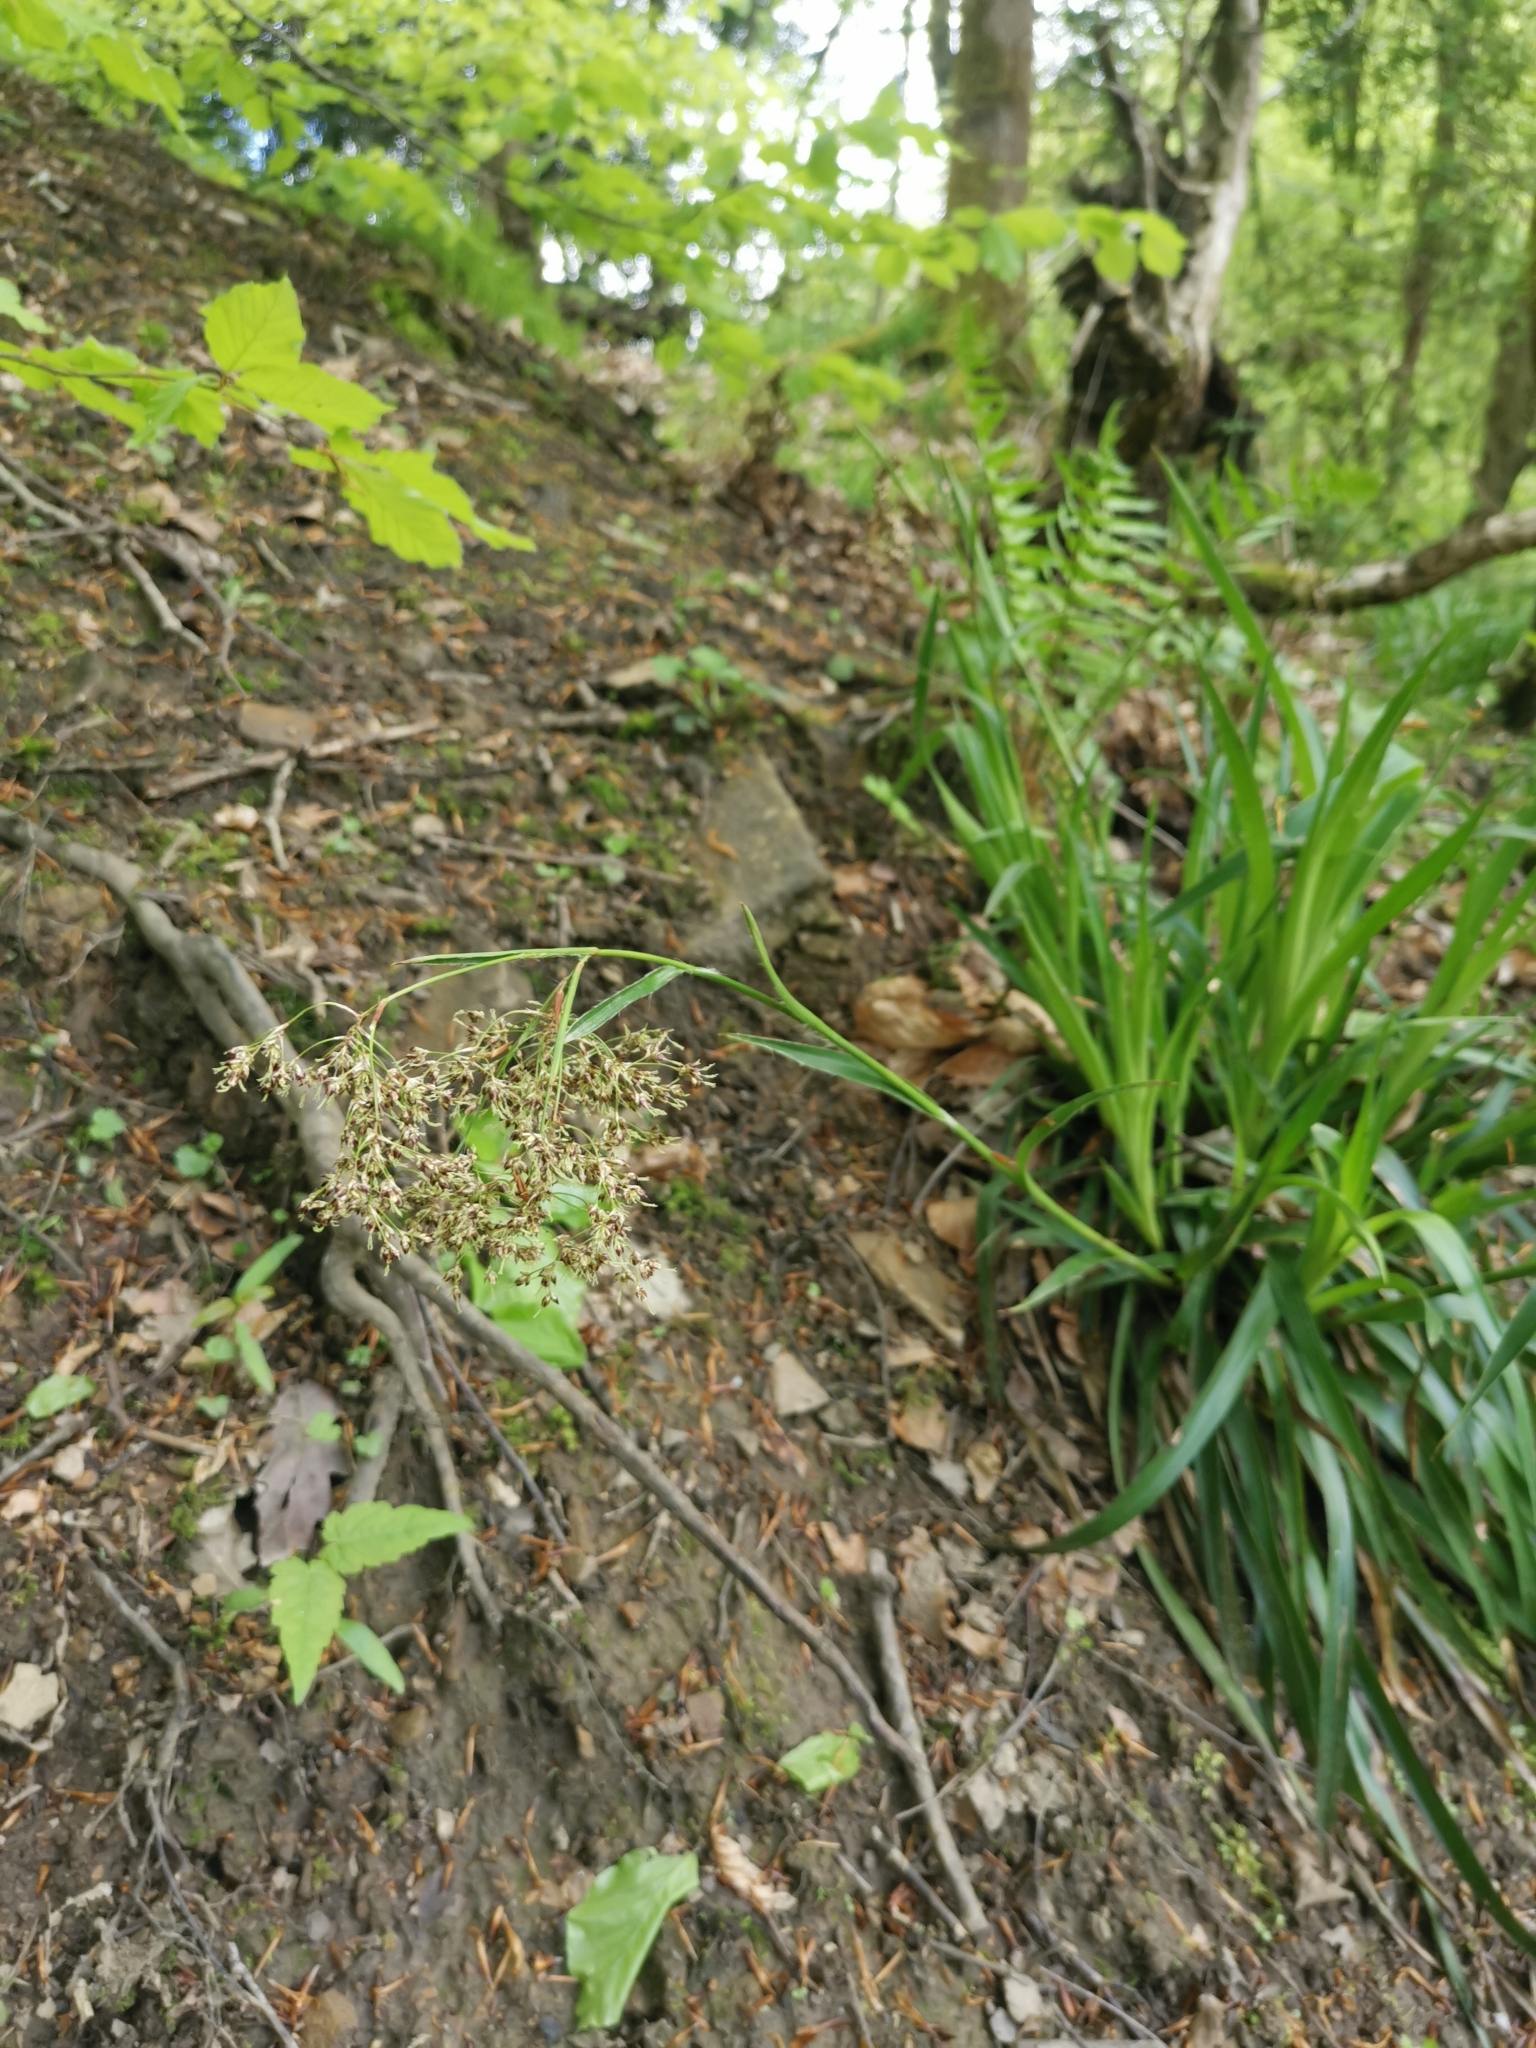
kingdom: Plantae
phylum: Tracheophyta
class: Liliopsida
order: Poales
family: Juncaceae
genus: Luzula
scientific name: Luzula sylvatica
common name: Great wood-rush
